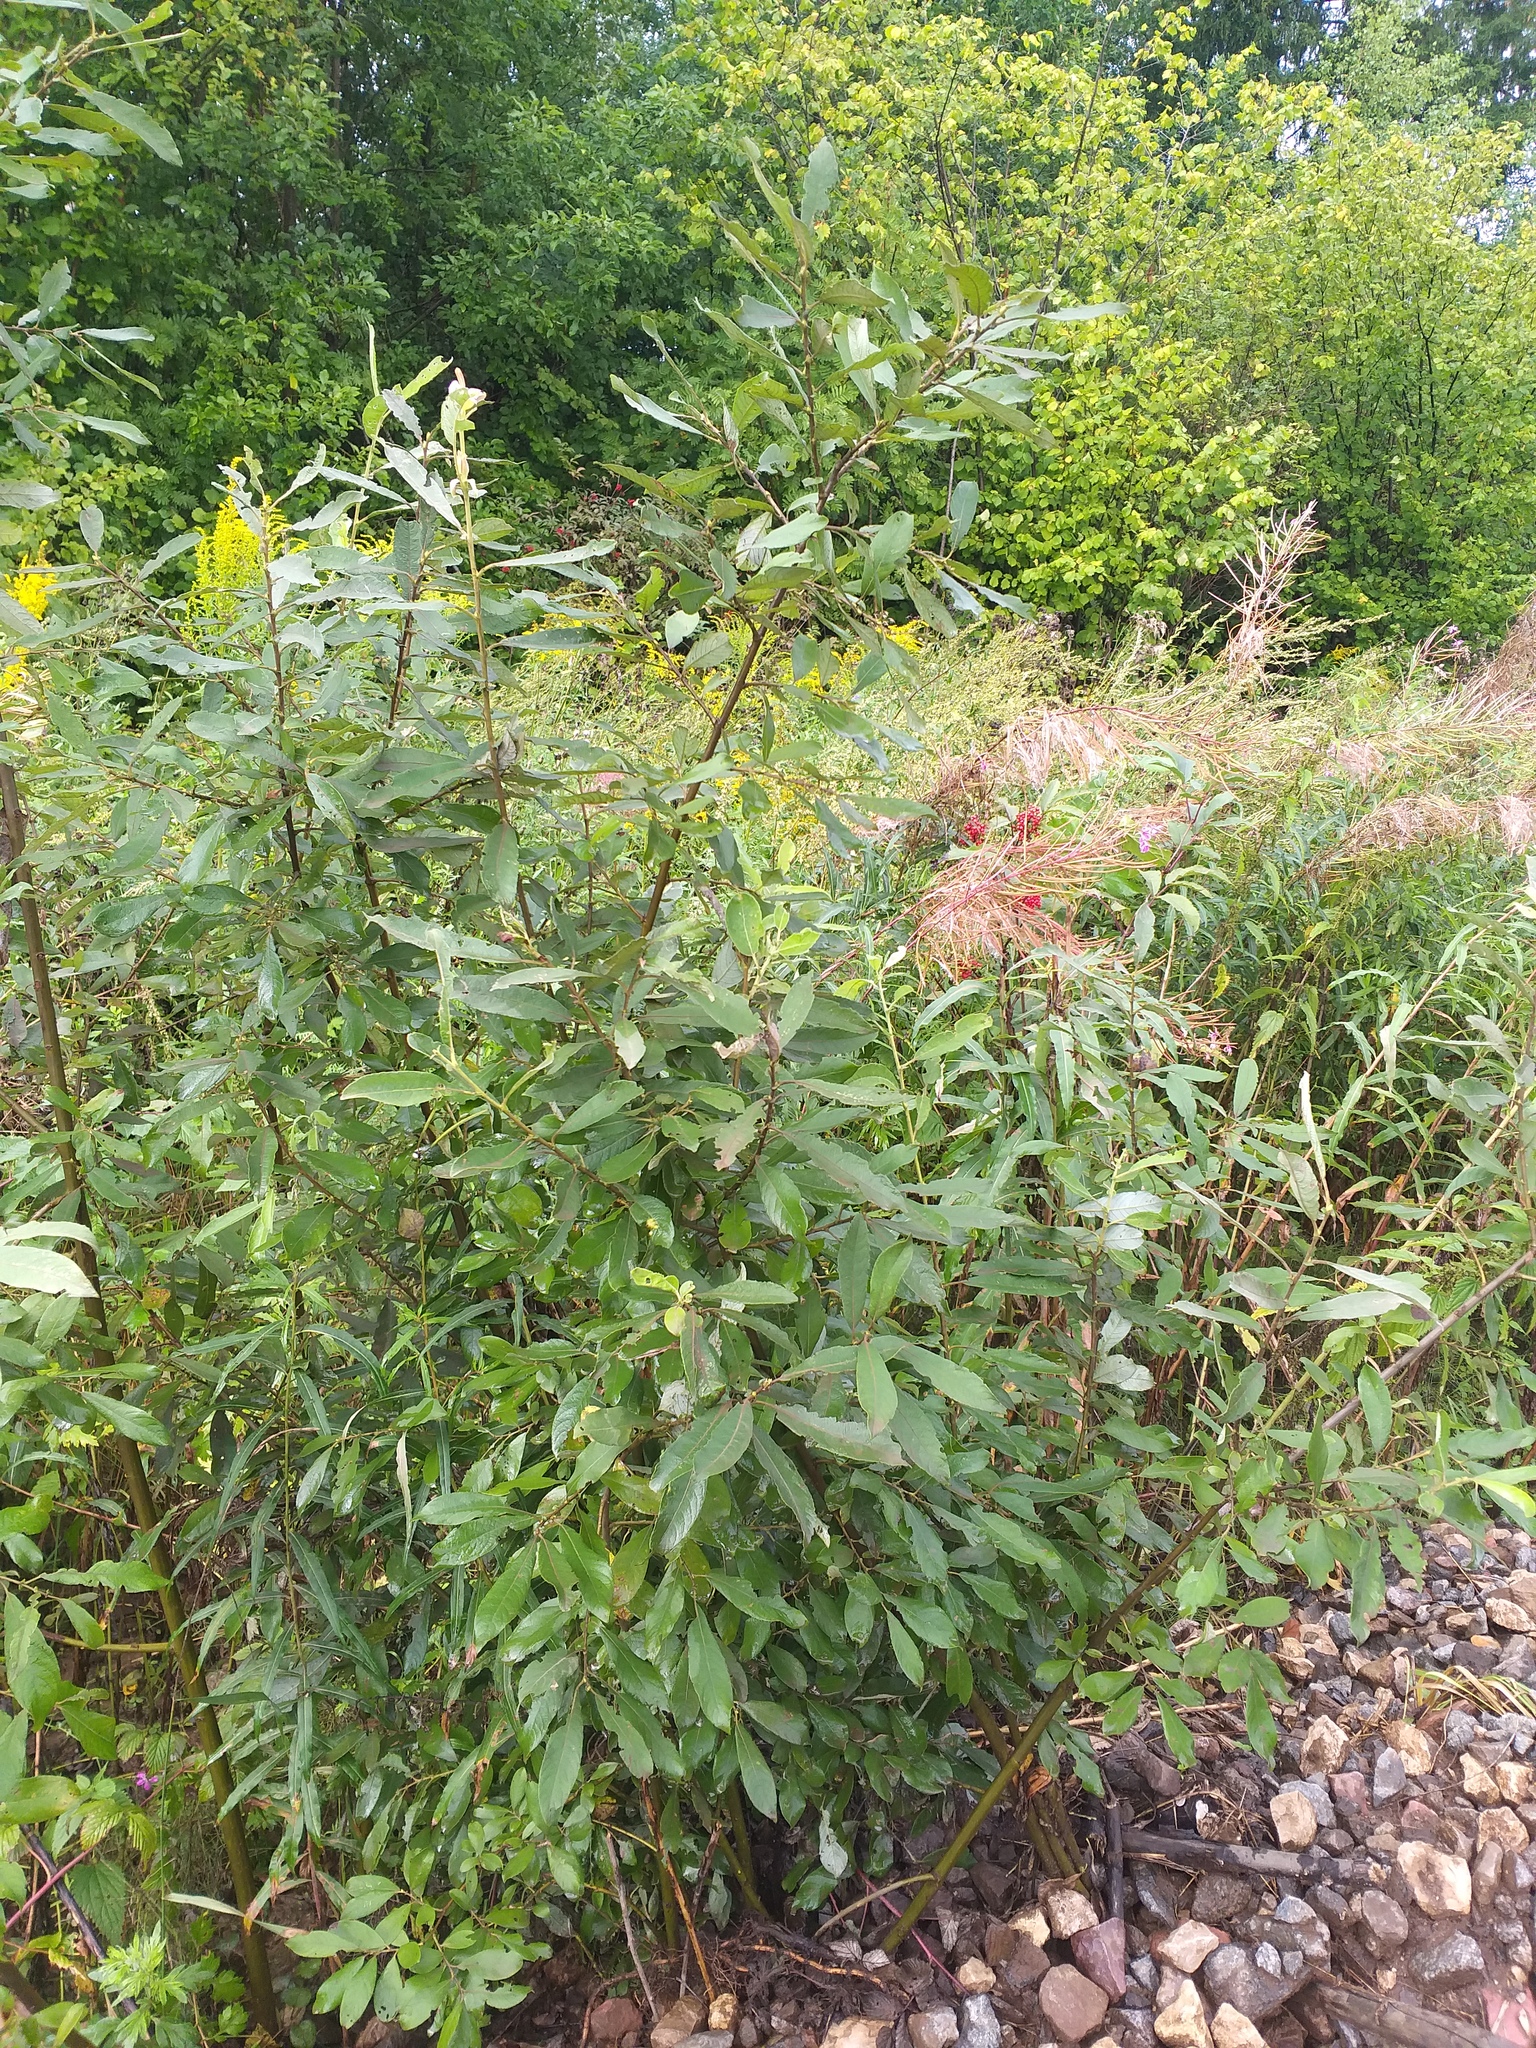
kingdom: Plantae
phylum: Tracheophyta
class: Magnoliopsida
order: Malpighiales
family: Salicaceae
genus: Salix
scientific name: Salix cinerea
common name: Common sallow
